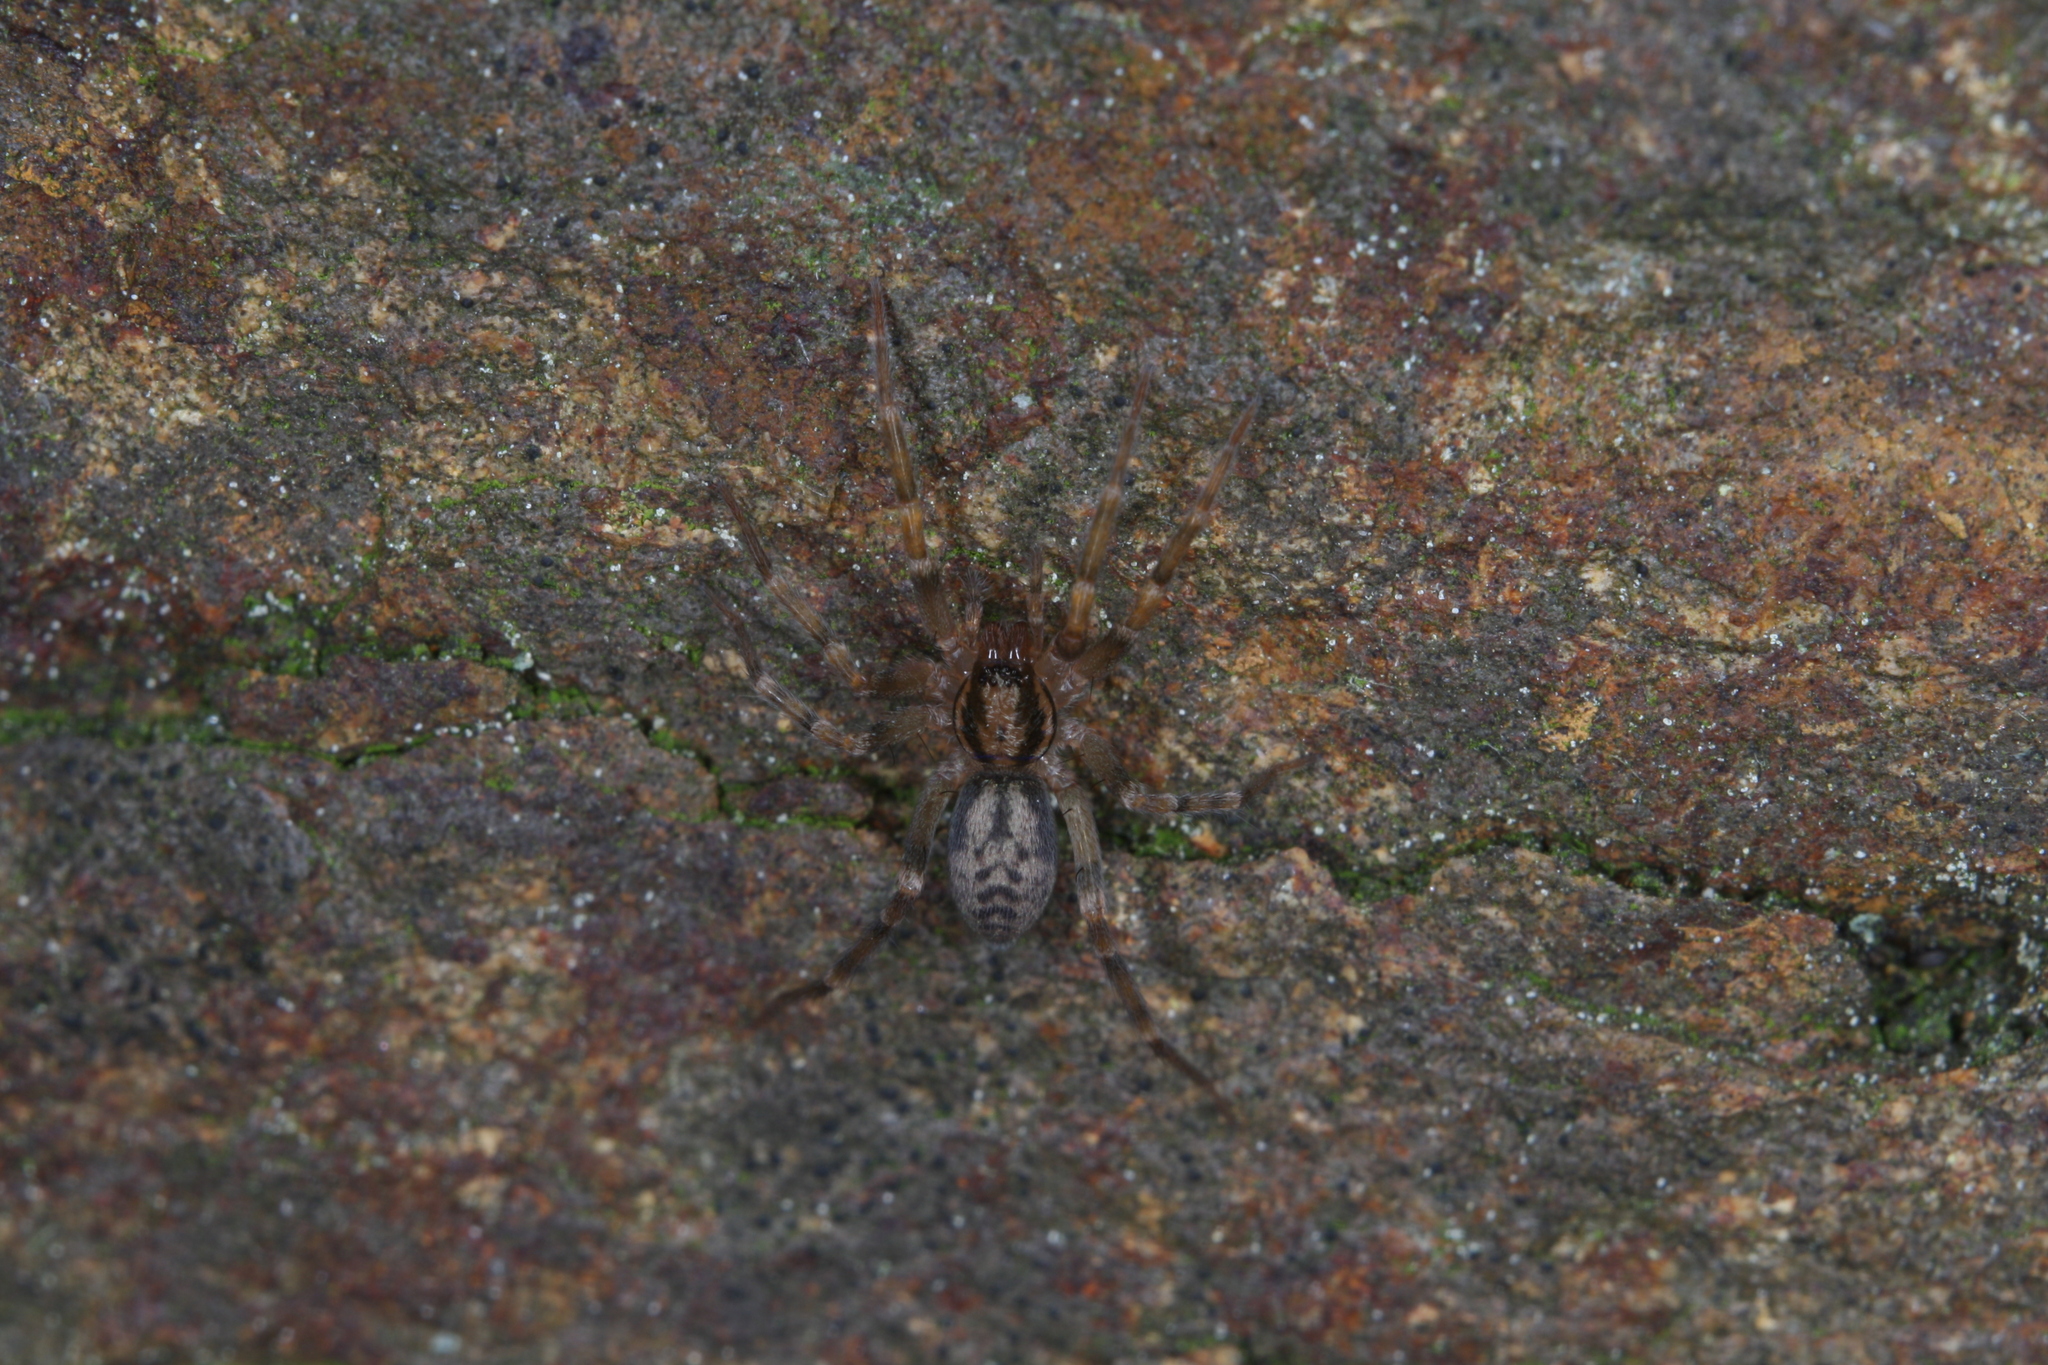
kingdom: Animalia
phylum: Arthropoda
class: Arachnida
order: Araneae
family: Liocranidae
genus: Liocranum
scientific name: Liocranum rupicola
